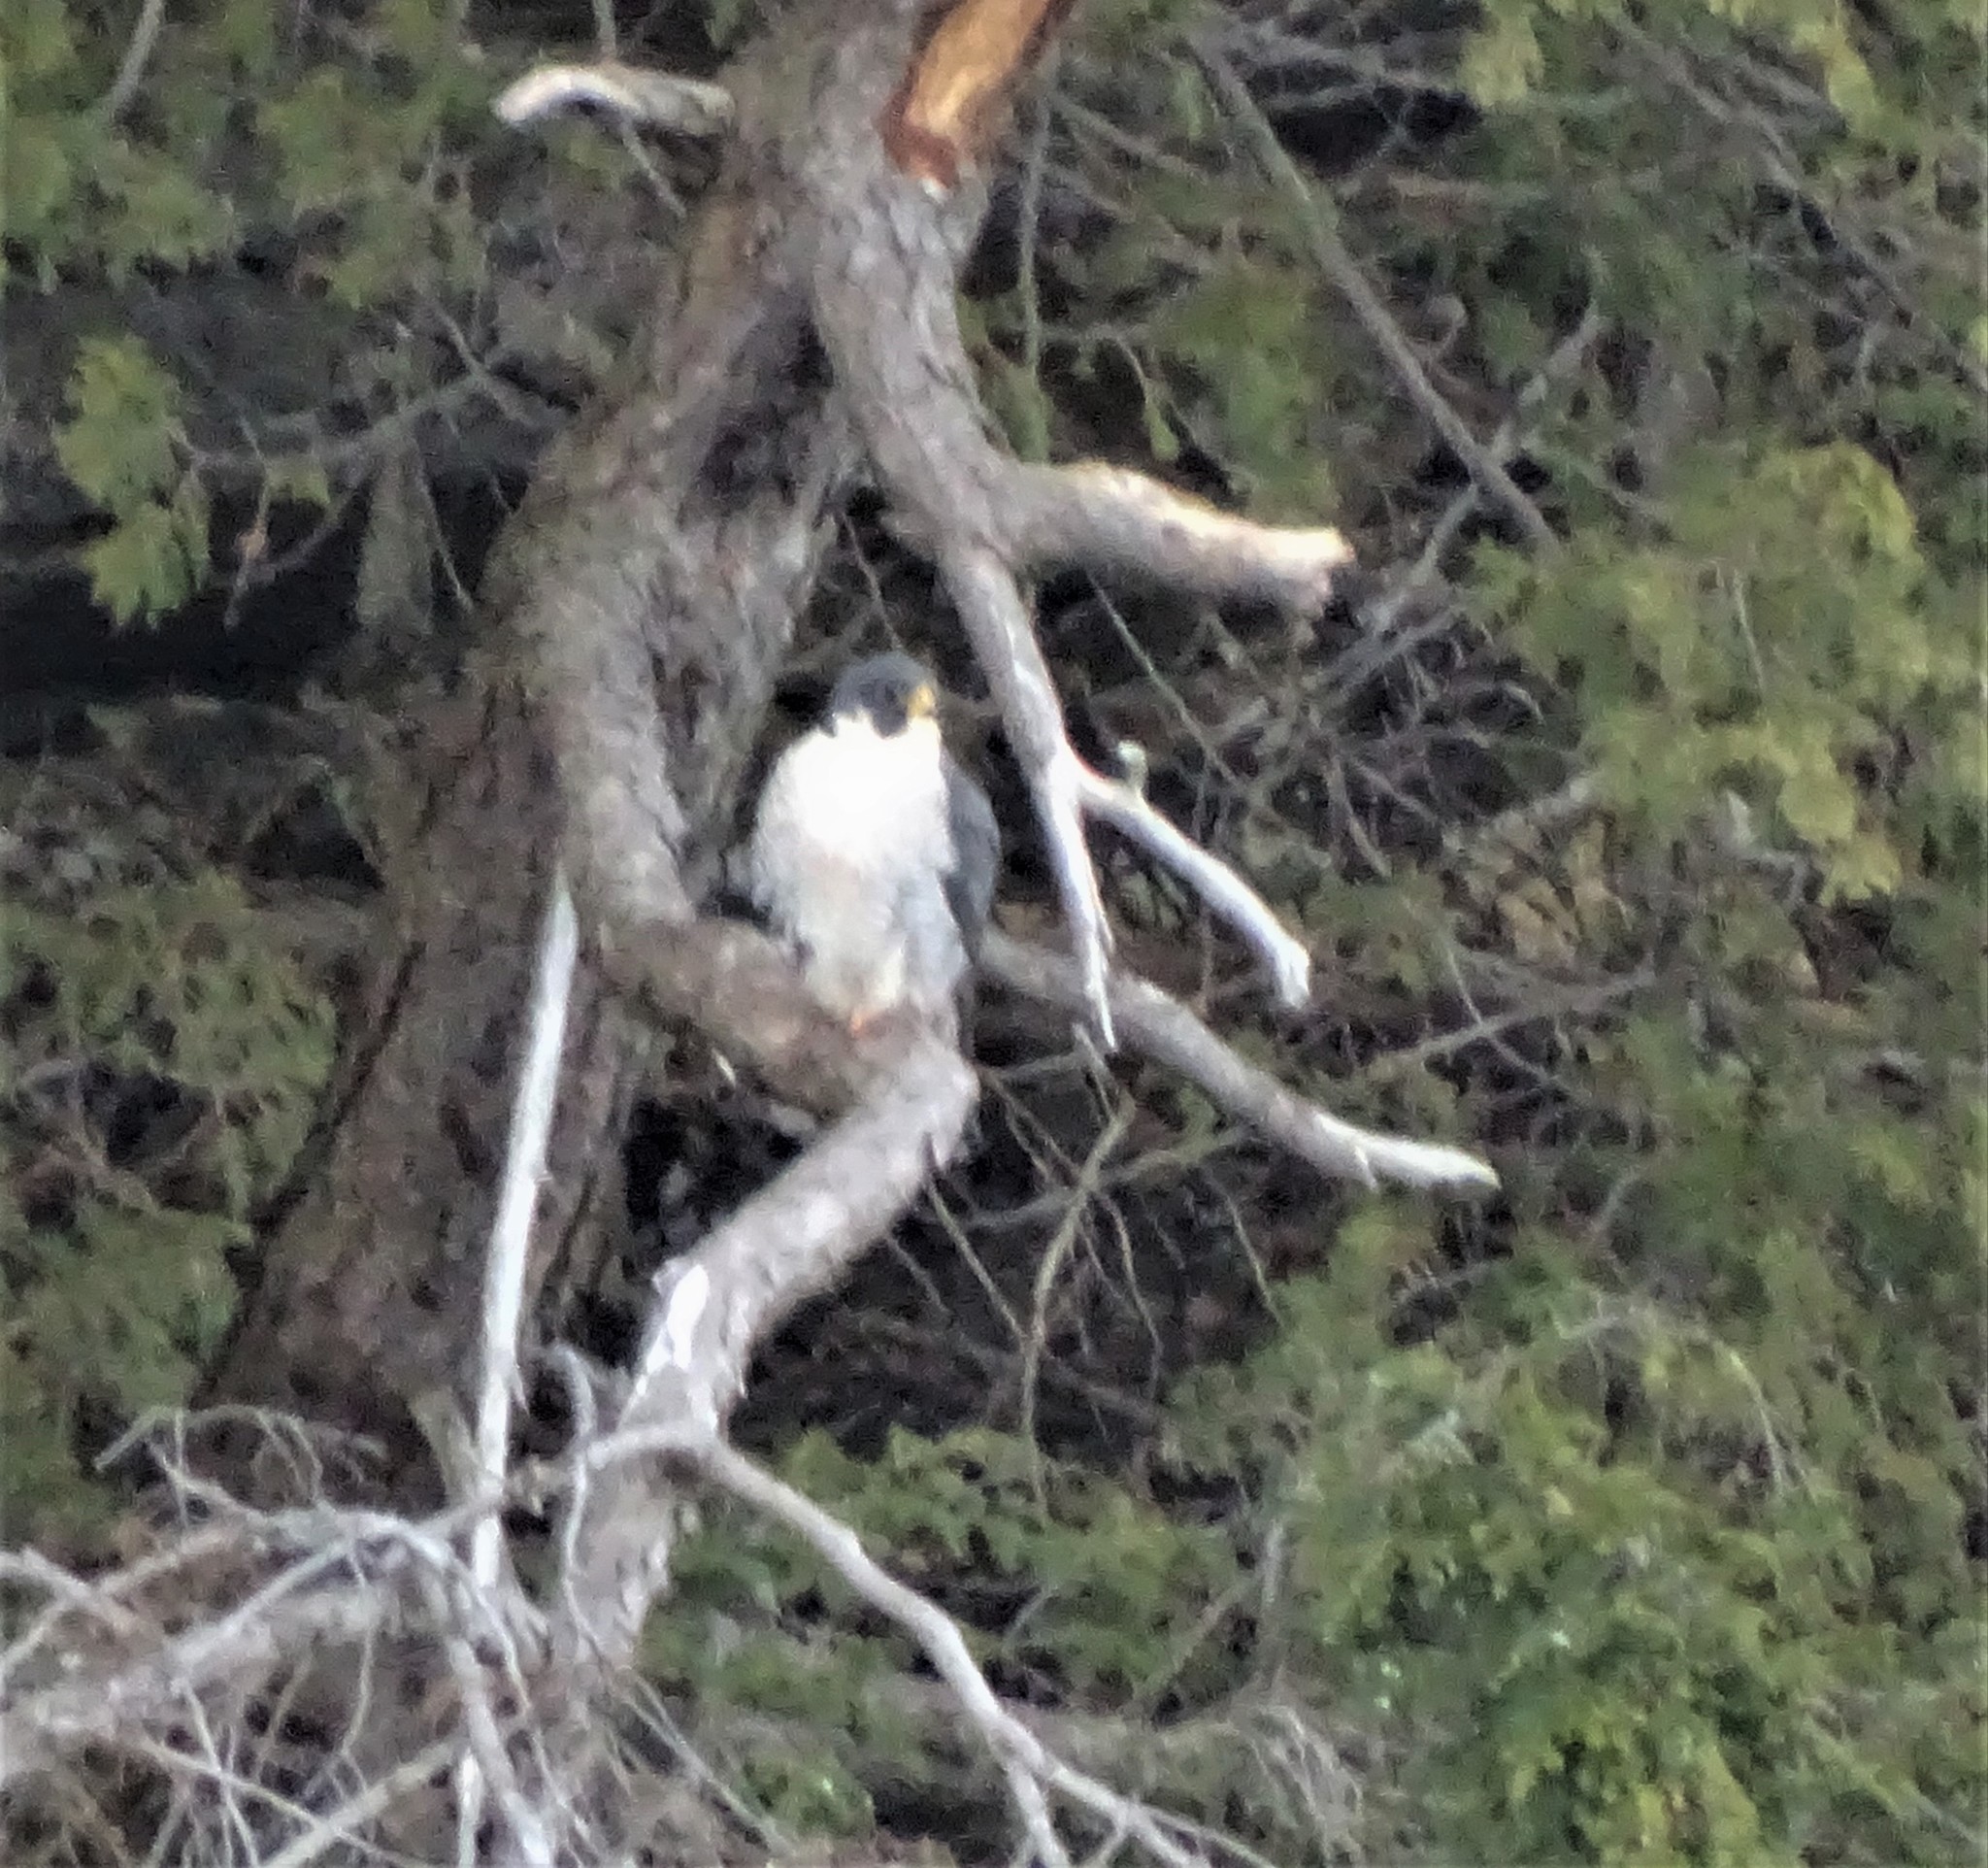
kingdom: Animalia
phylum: Chordata
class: Aves
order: Falconiformes
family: Falconidae
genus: Falco
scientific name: Falco peregrinus
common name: Peregrine falcon
